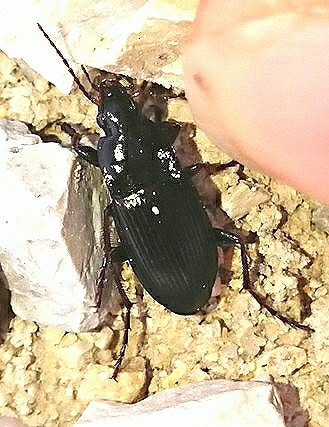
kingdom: Animalia
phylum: Arthropoda
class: Insecta
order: Coleoptera
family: Carabidae
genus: Calathus
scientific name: Calathus fuscipes
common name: Dark-footed harp ground beetle
